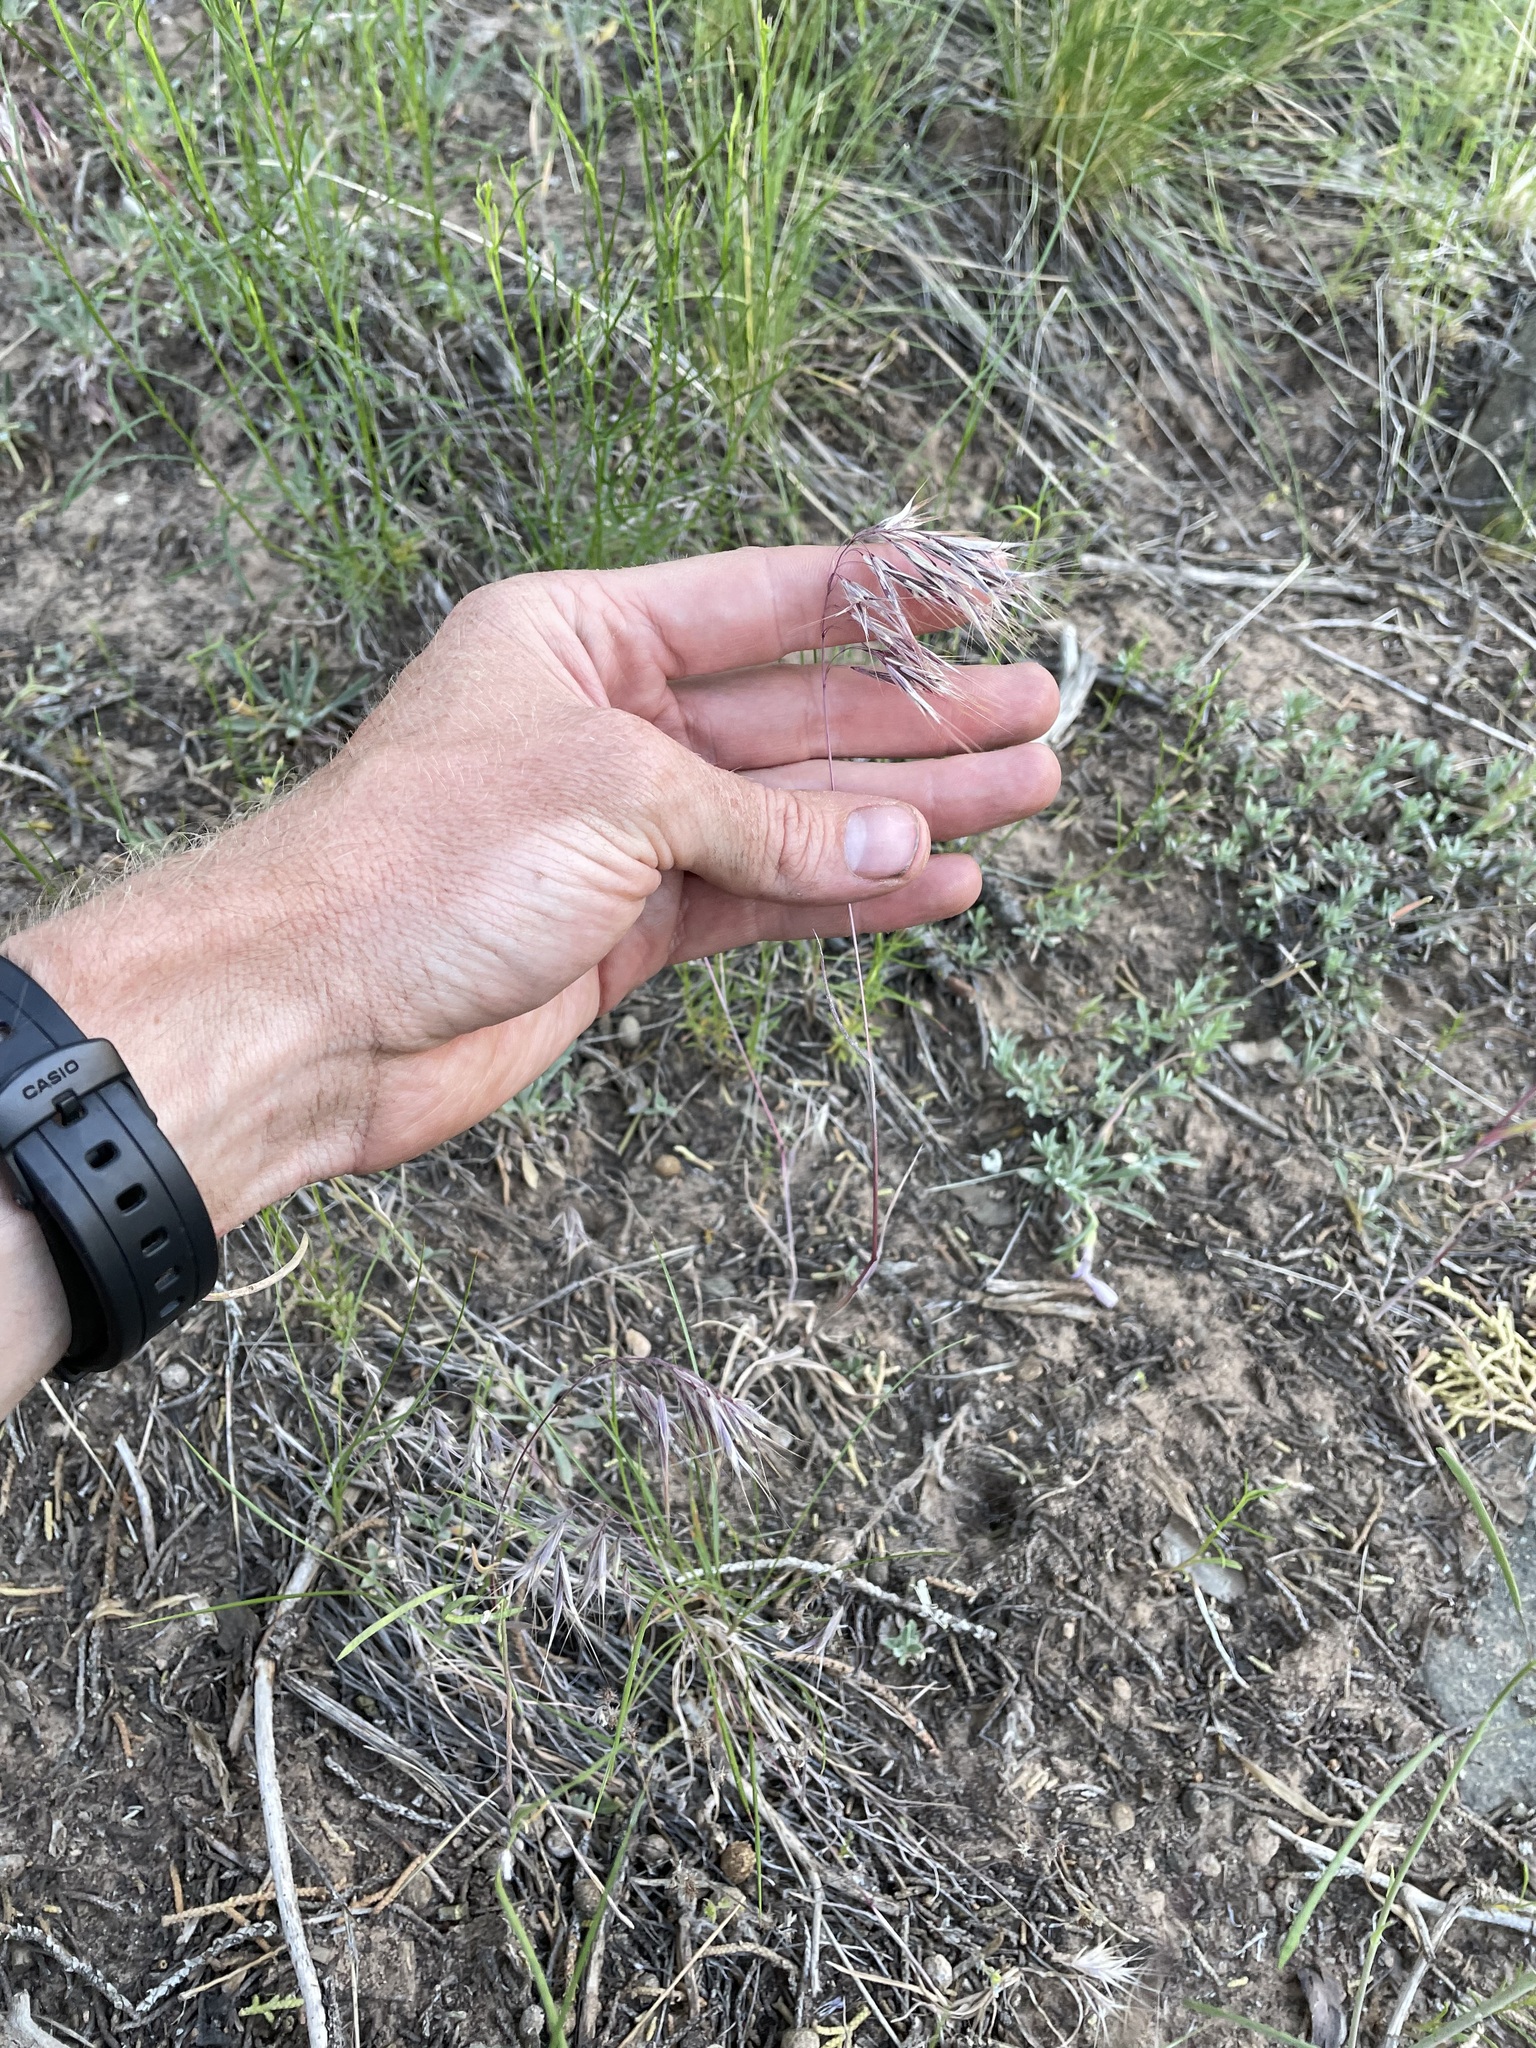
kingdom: Plantae
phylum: Tracheophyta
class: Liliopsida
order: Poales
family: Poaceae
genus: Bromus
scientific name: Bromus tectorum
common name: Cheatgrass
